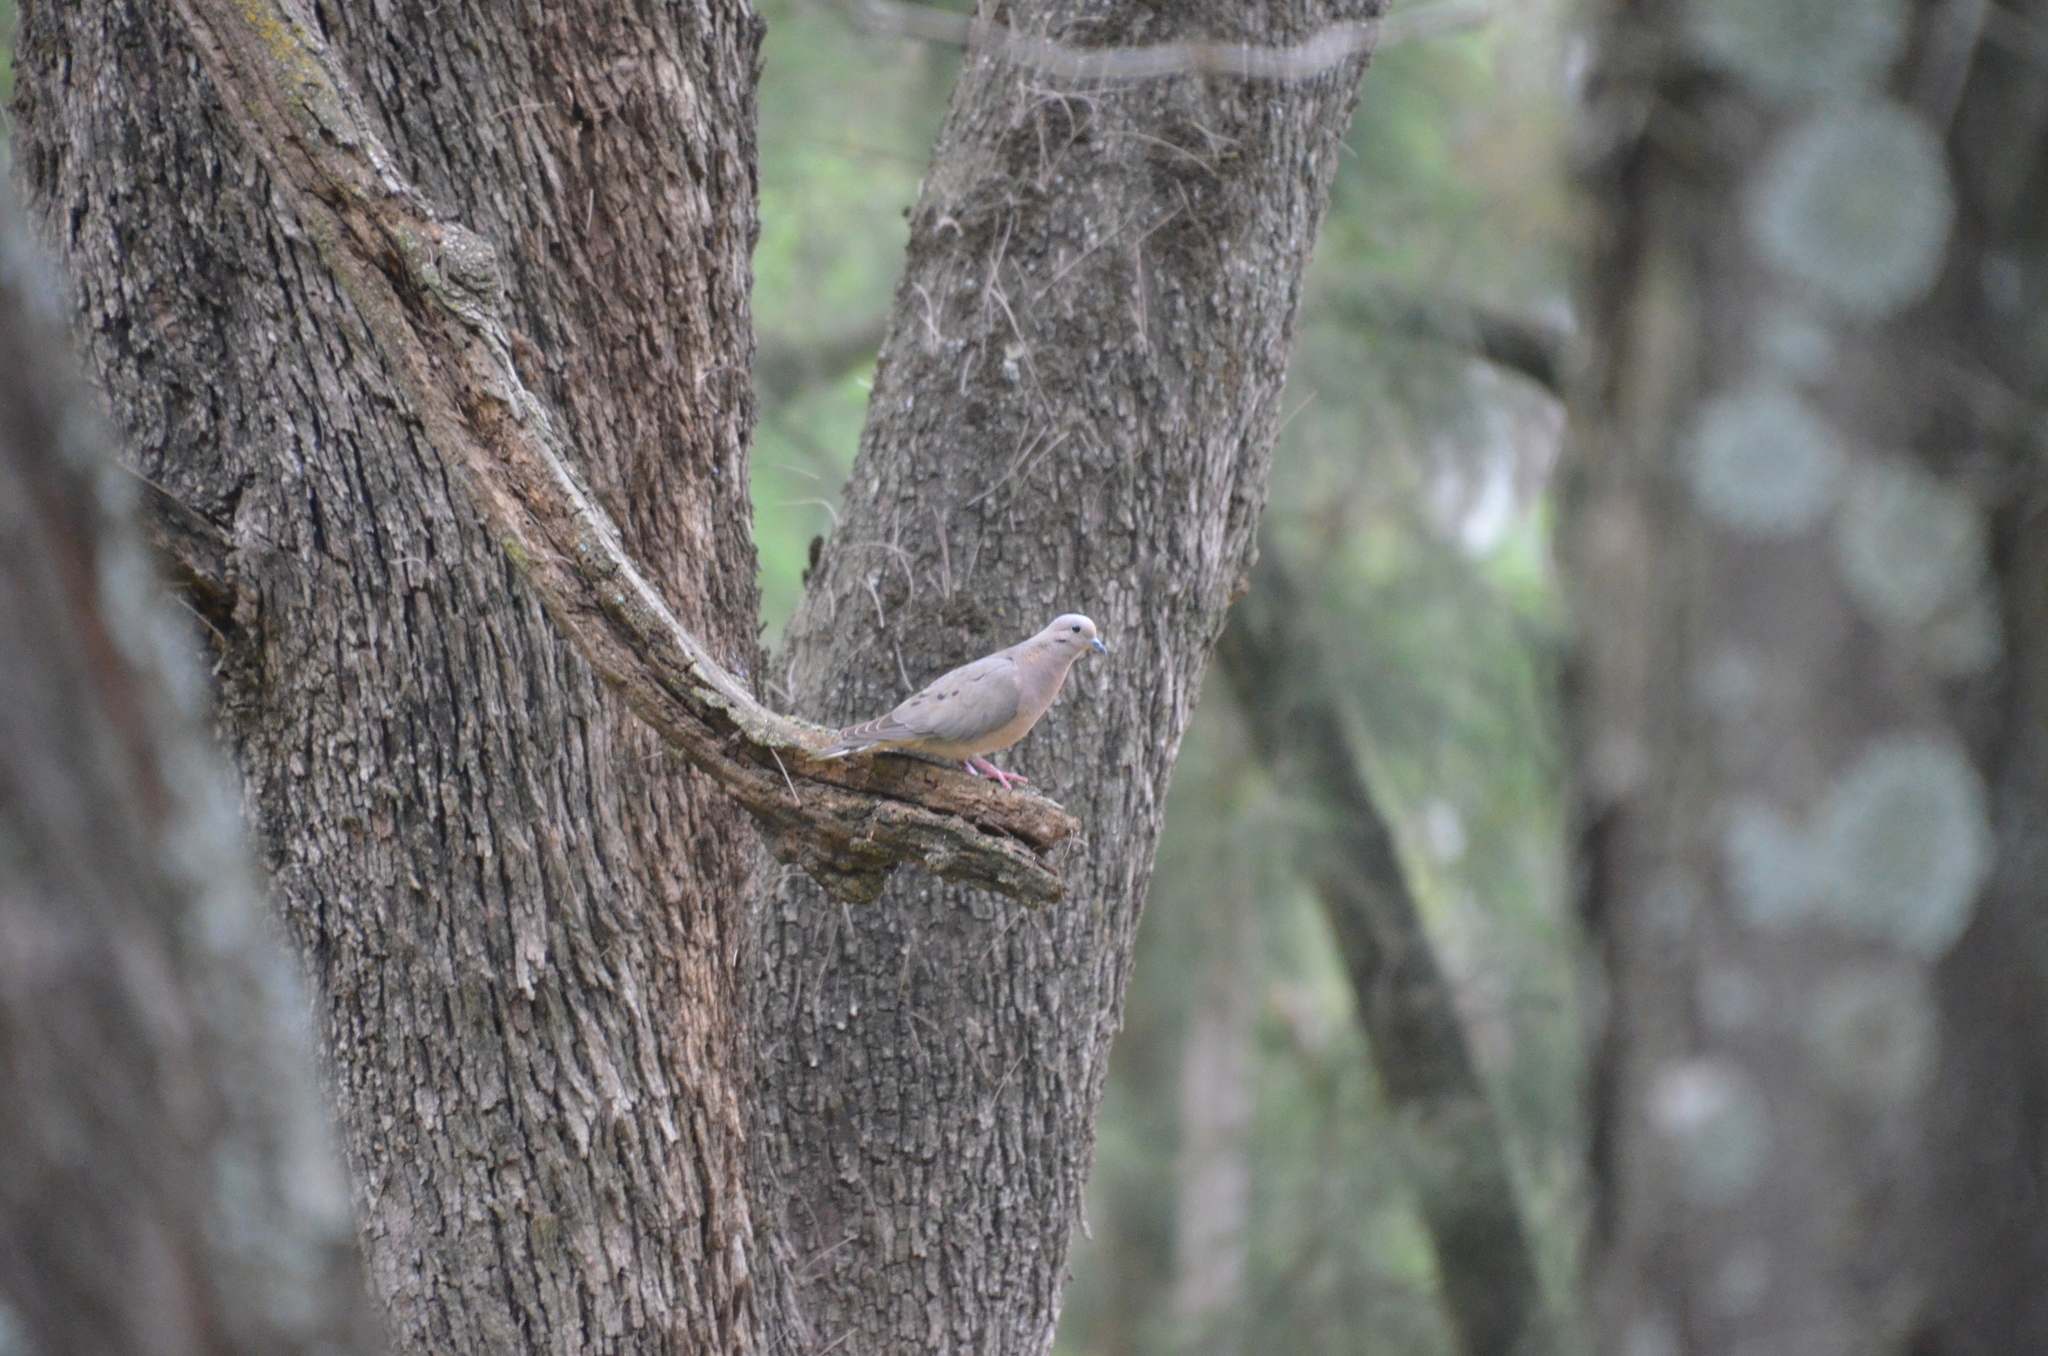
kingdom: Animalia
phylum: Chordata
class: Aves
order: Columbiformes
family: Columbidae
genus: Zenaida
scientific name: Zenaida auriculata
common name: Eared dove
